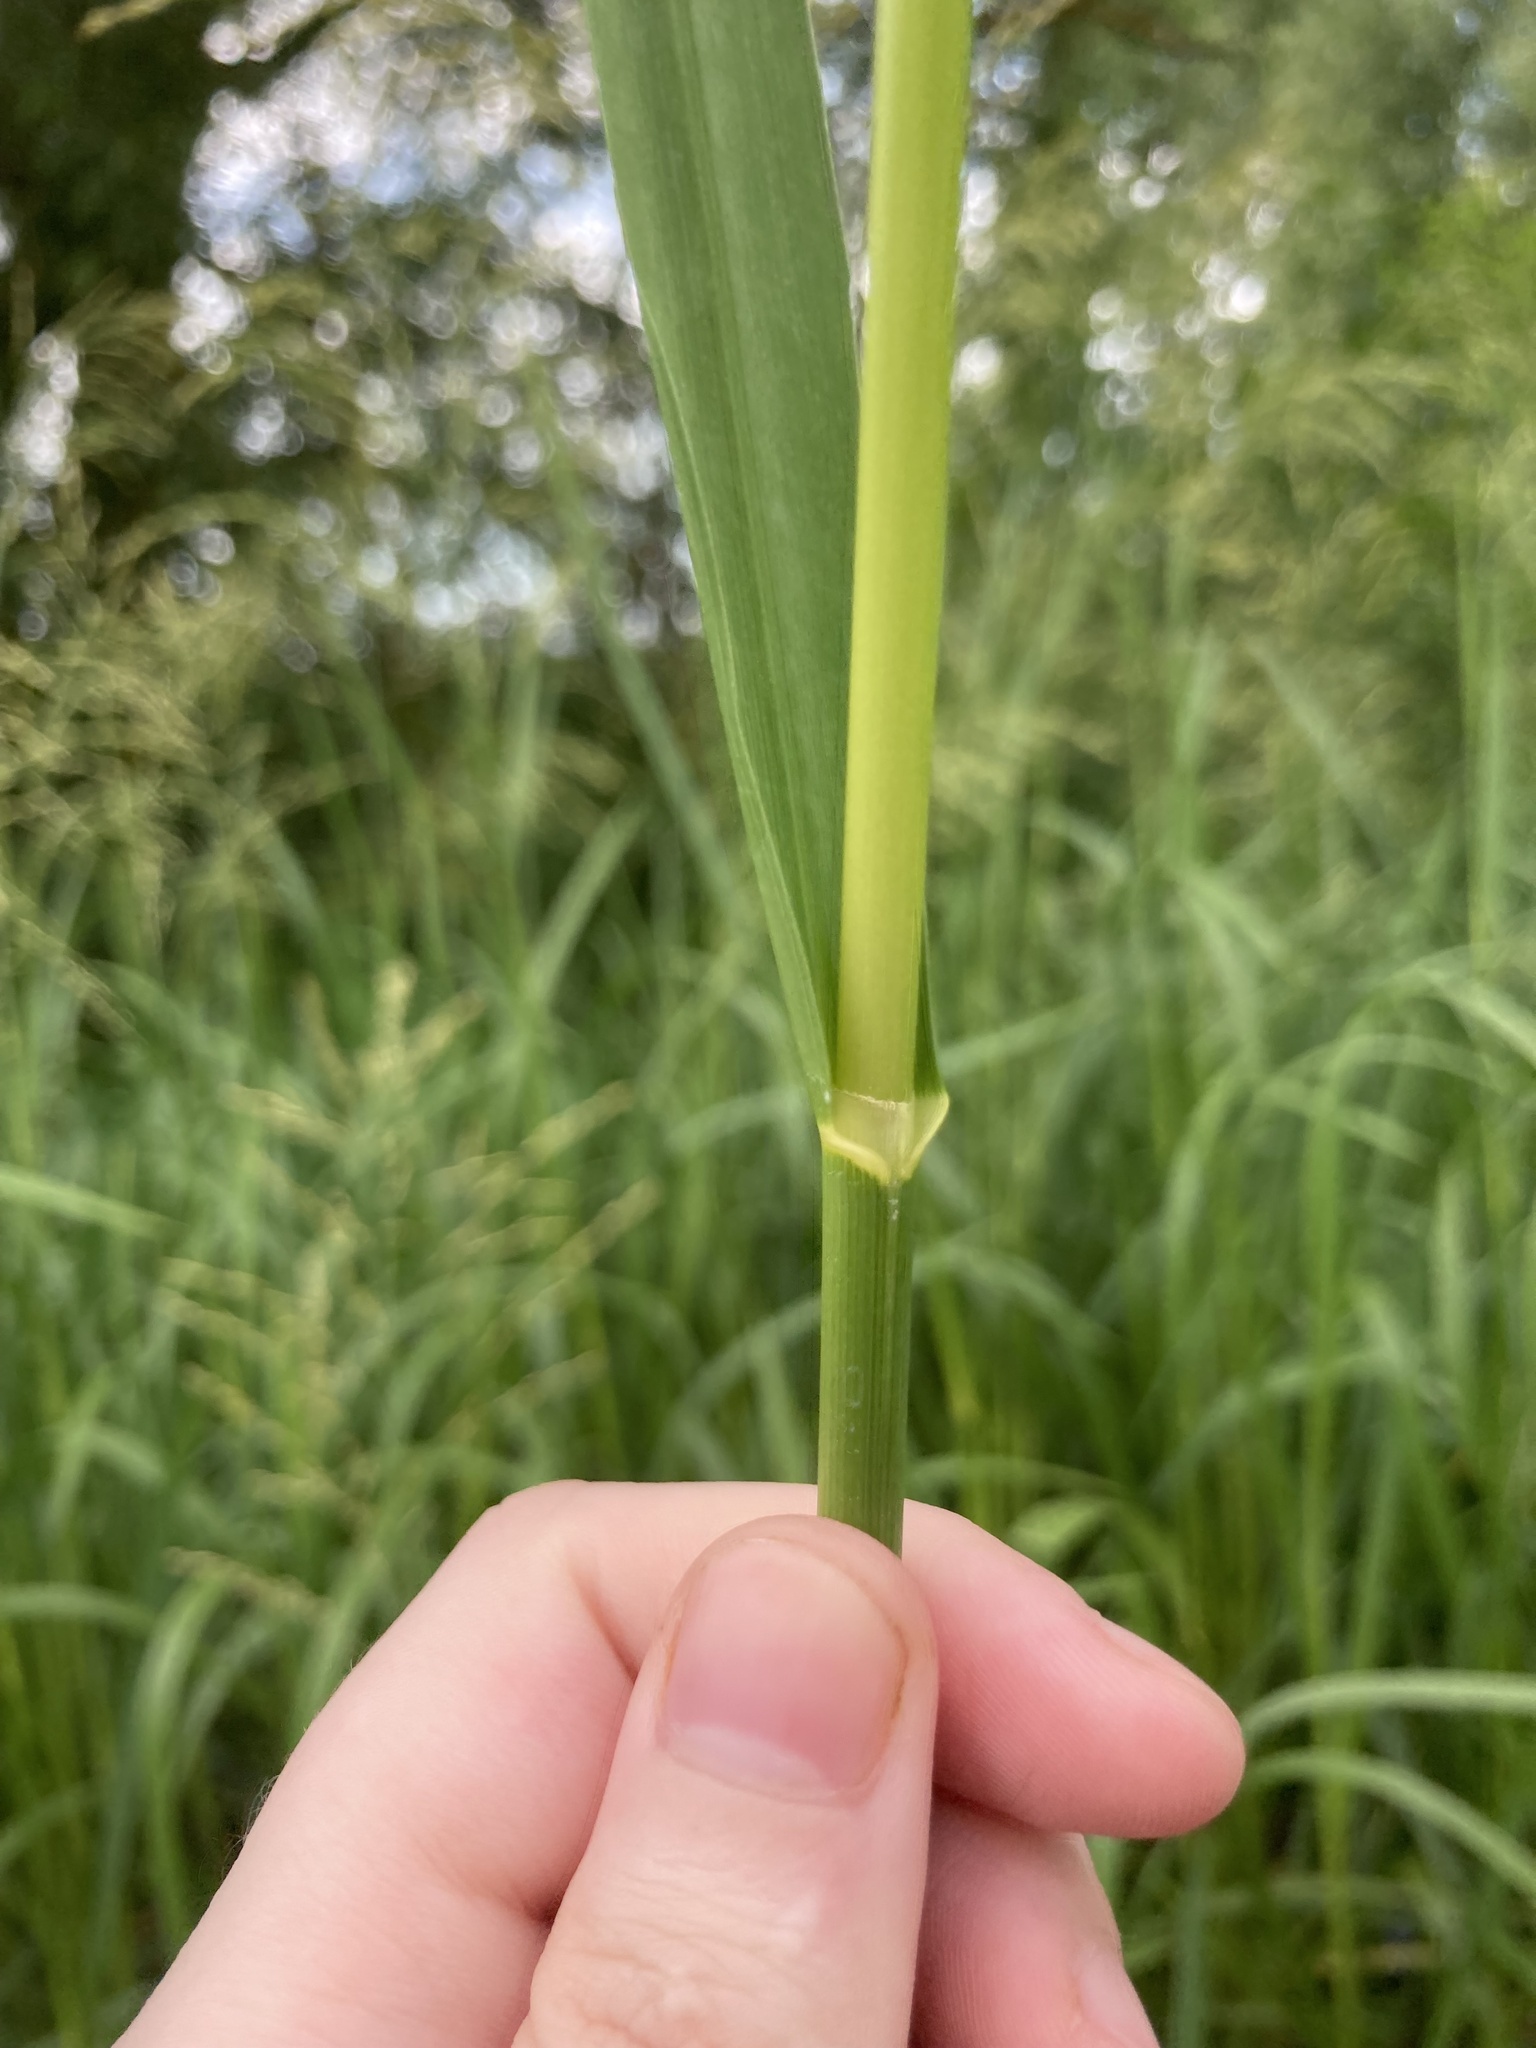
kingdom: Plantae
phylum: Tracheophyta
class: Liliopsida
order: Poales
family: Poaceae
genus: Glyceria
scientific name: Glyceria maxima
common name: Reed mannagrass
